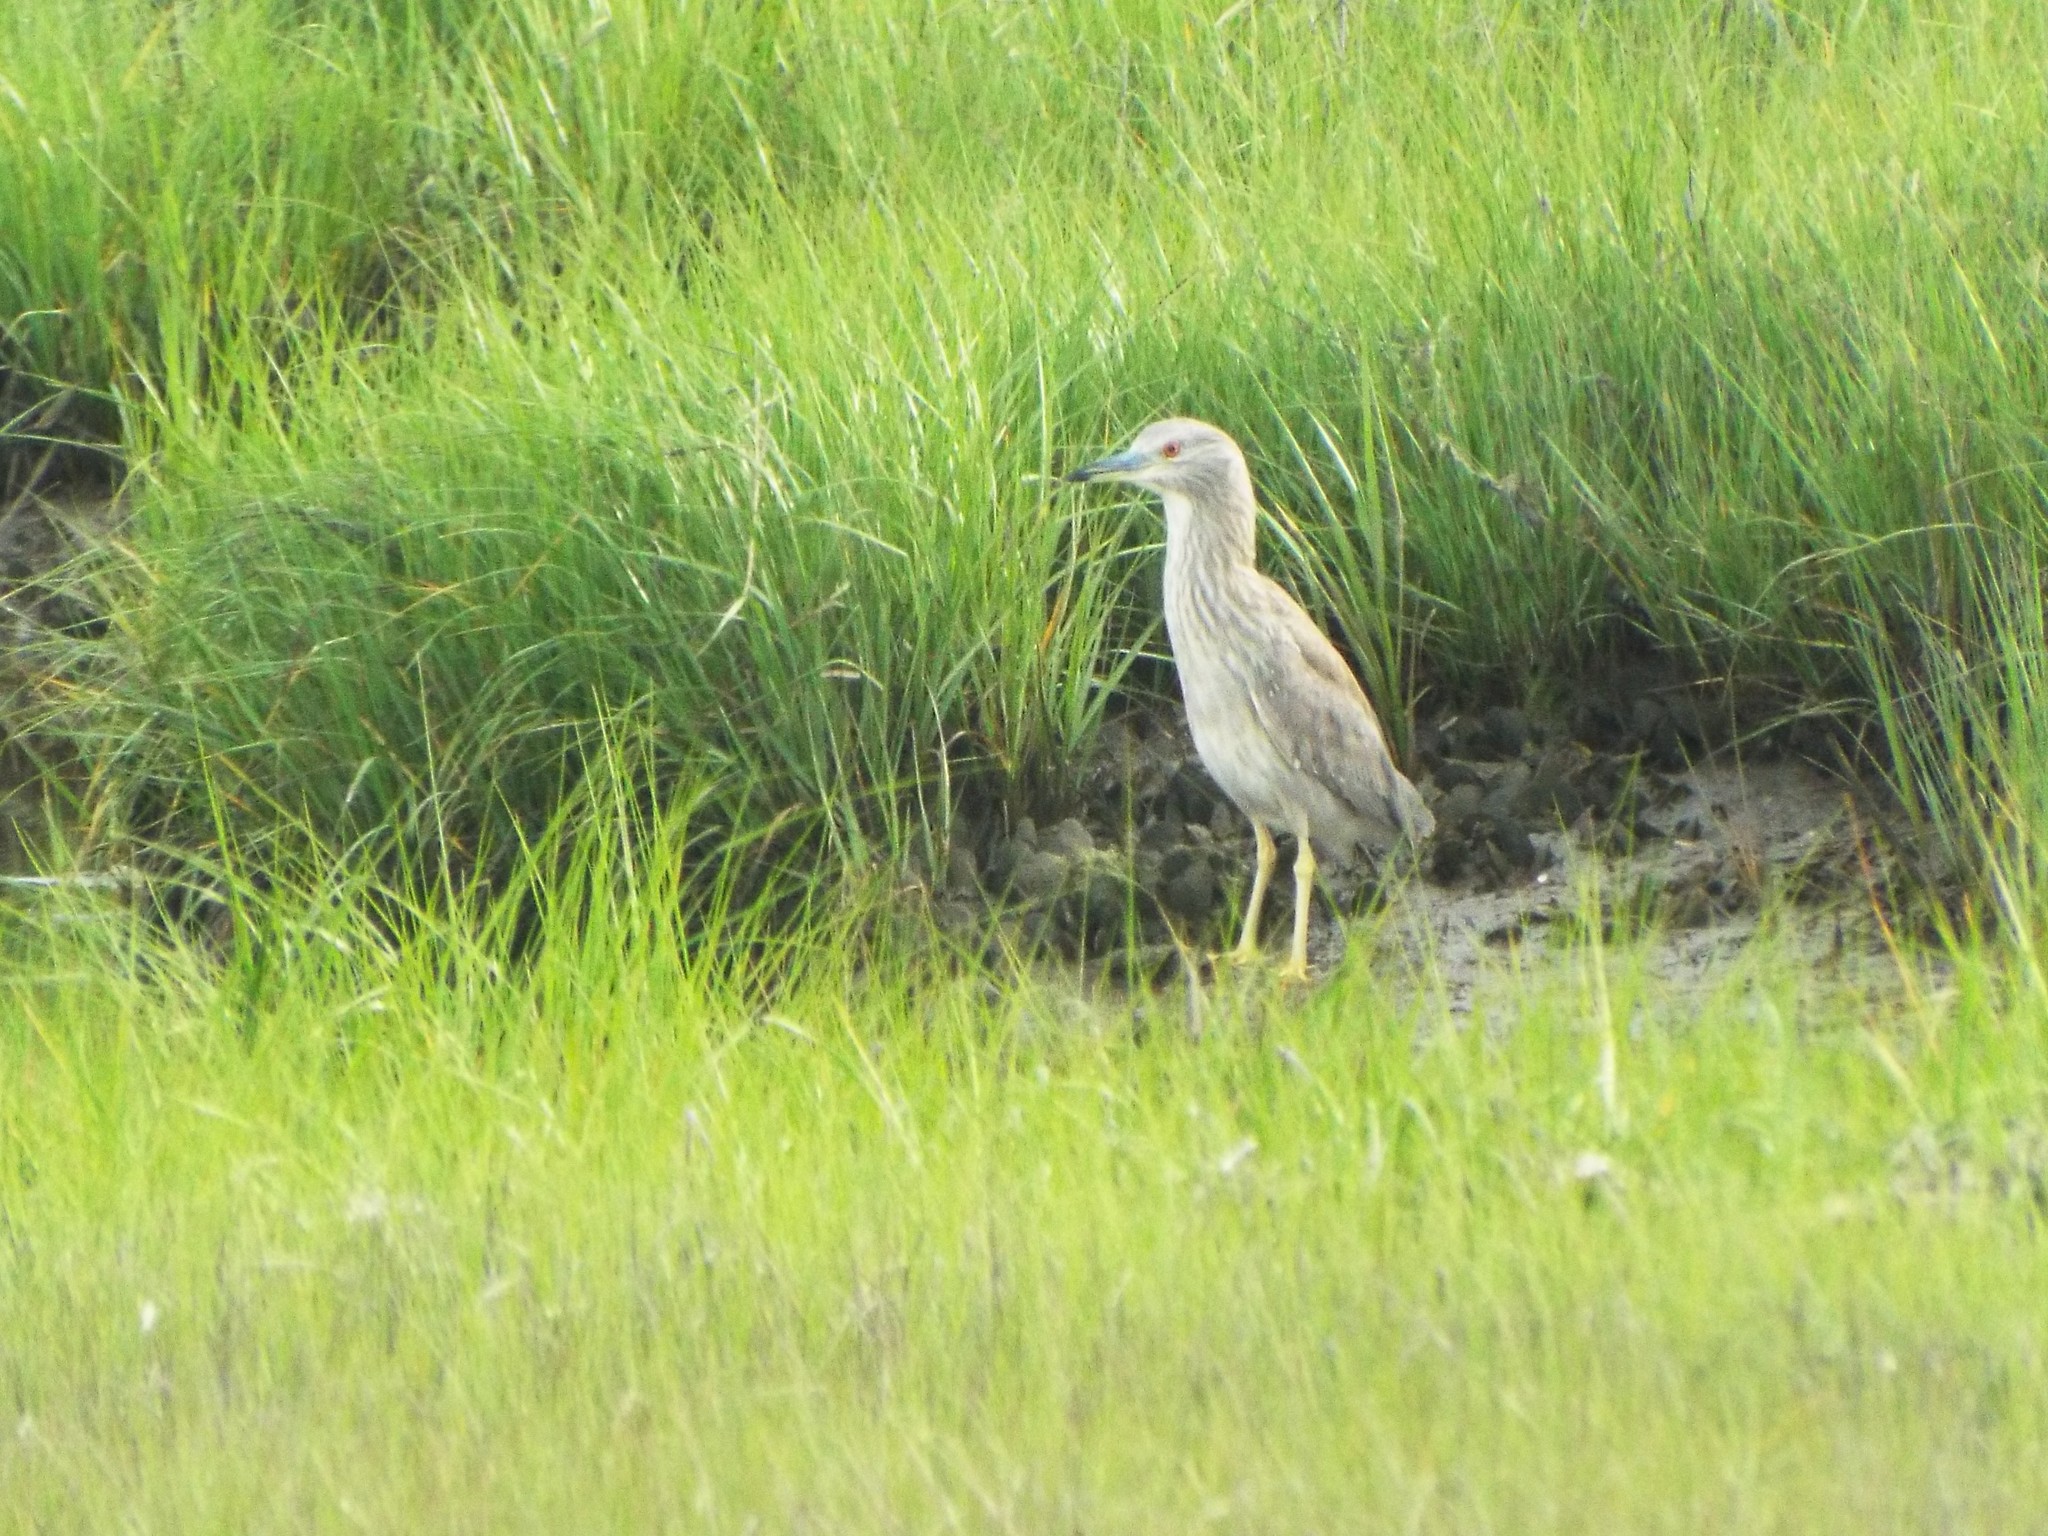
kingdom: Animalia
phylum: Chordata
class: Aves
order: Pelecaniformes
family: Ardeidae
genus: Nycticorax
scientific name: Nycticorax nycticorax
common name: Black-crowned night heron
